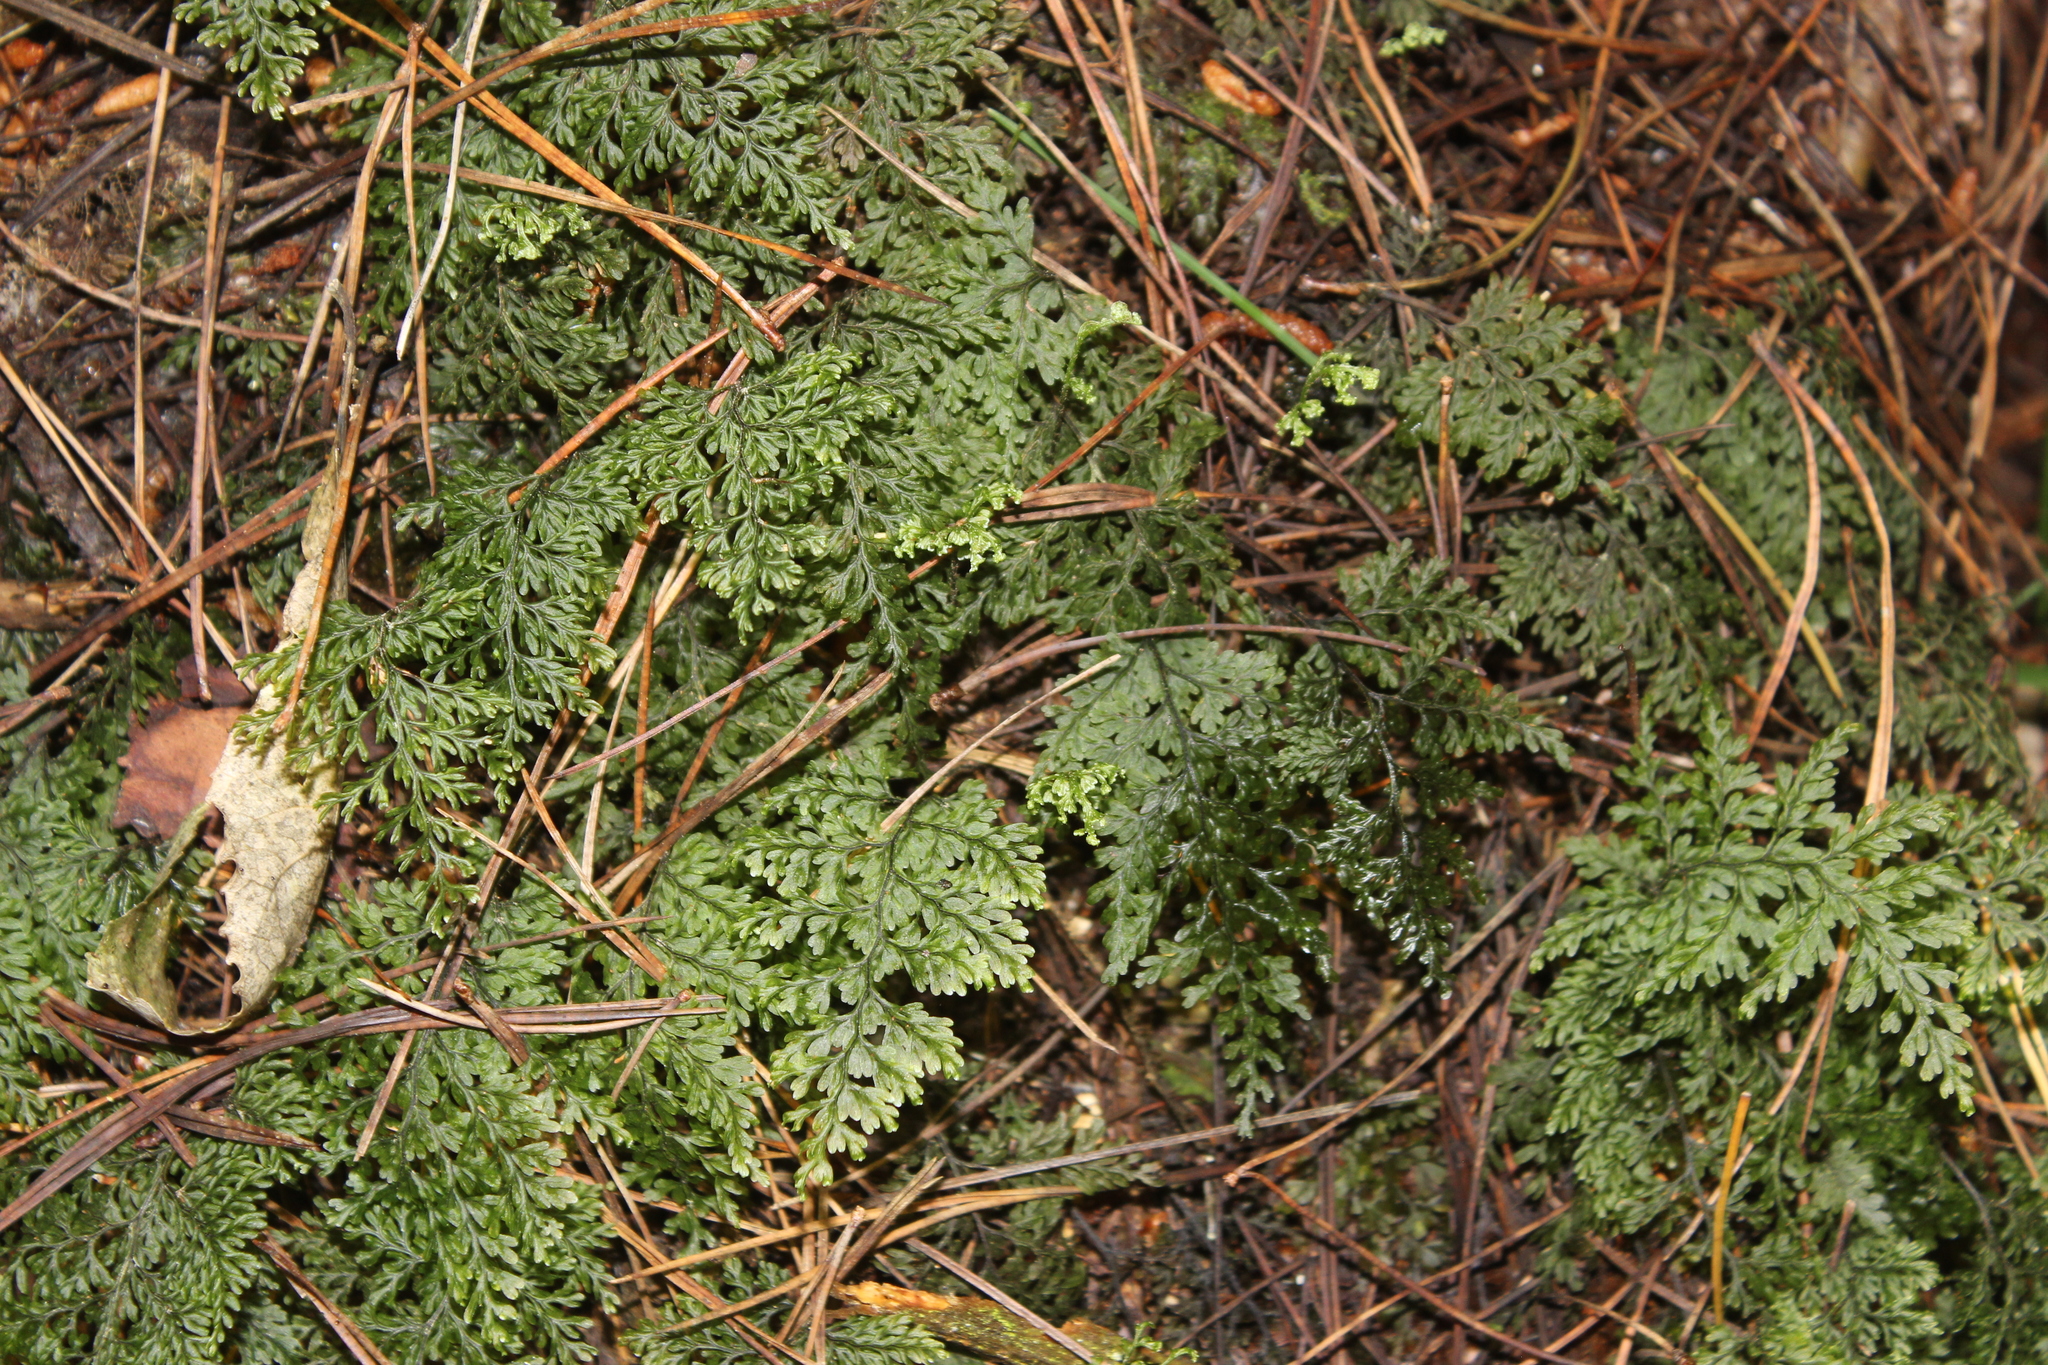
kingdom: Plantae
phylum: Tracheophyta
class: Polypodiopsida
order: Hymenophyllales
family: Hymenophyllaceae
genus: Hymenophyllum
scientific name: Hymenophyllum sanguinolentum
